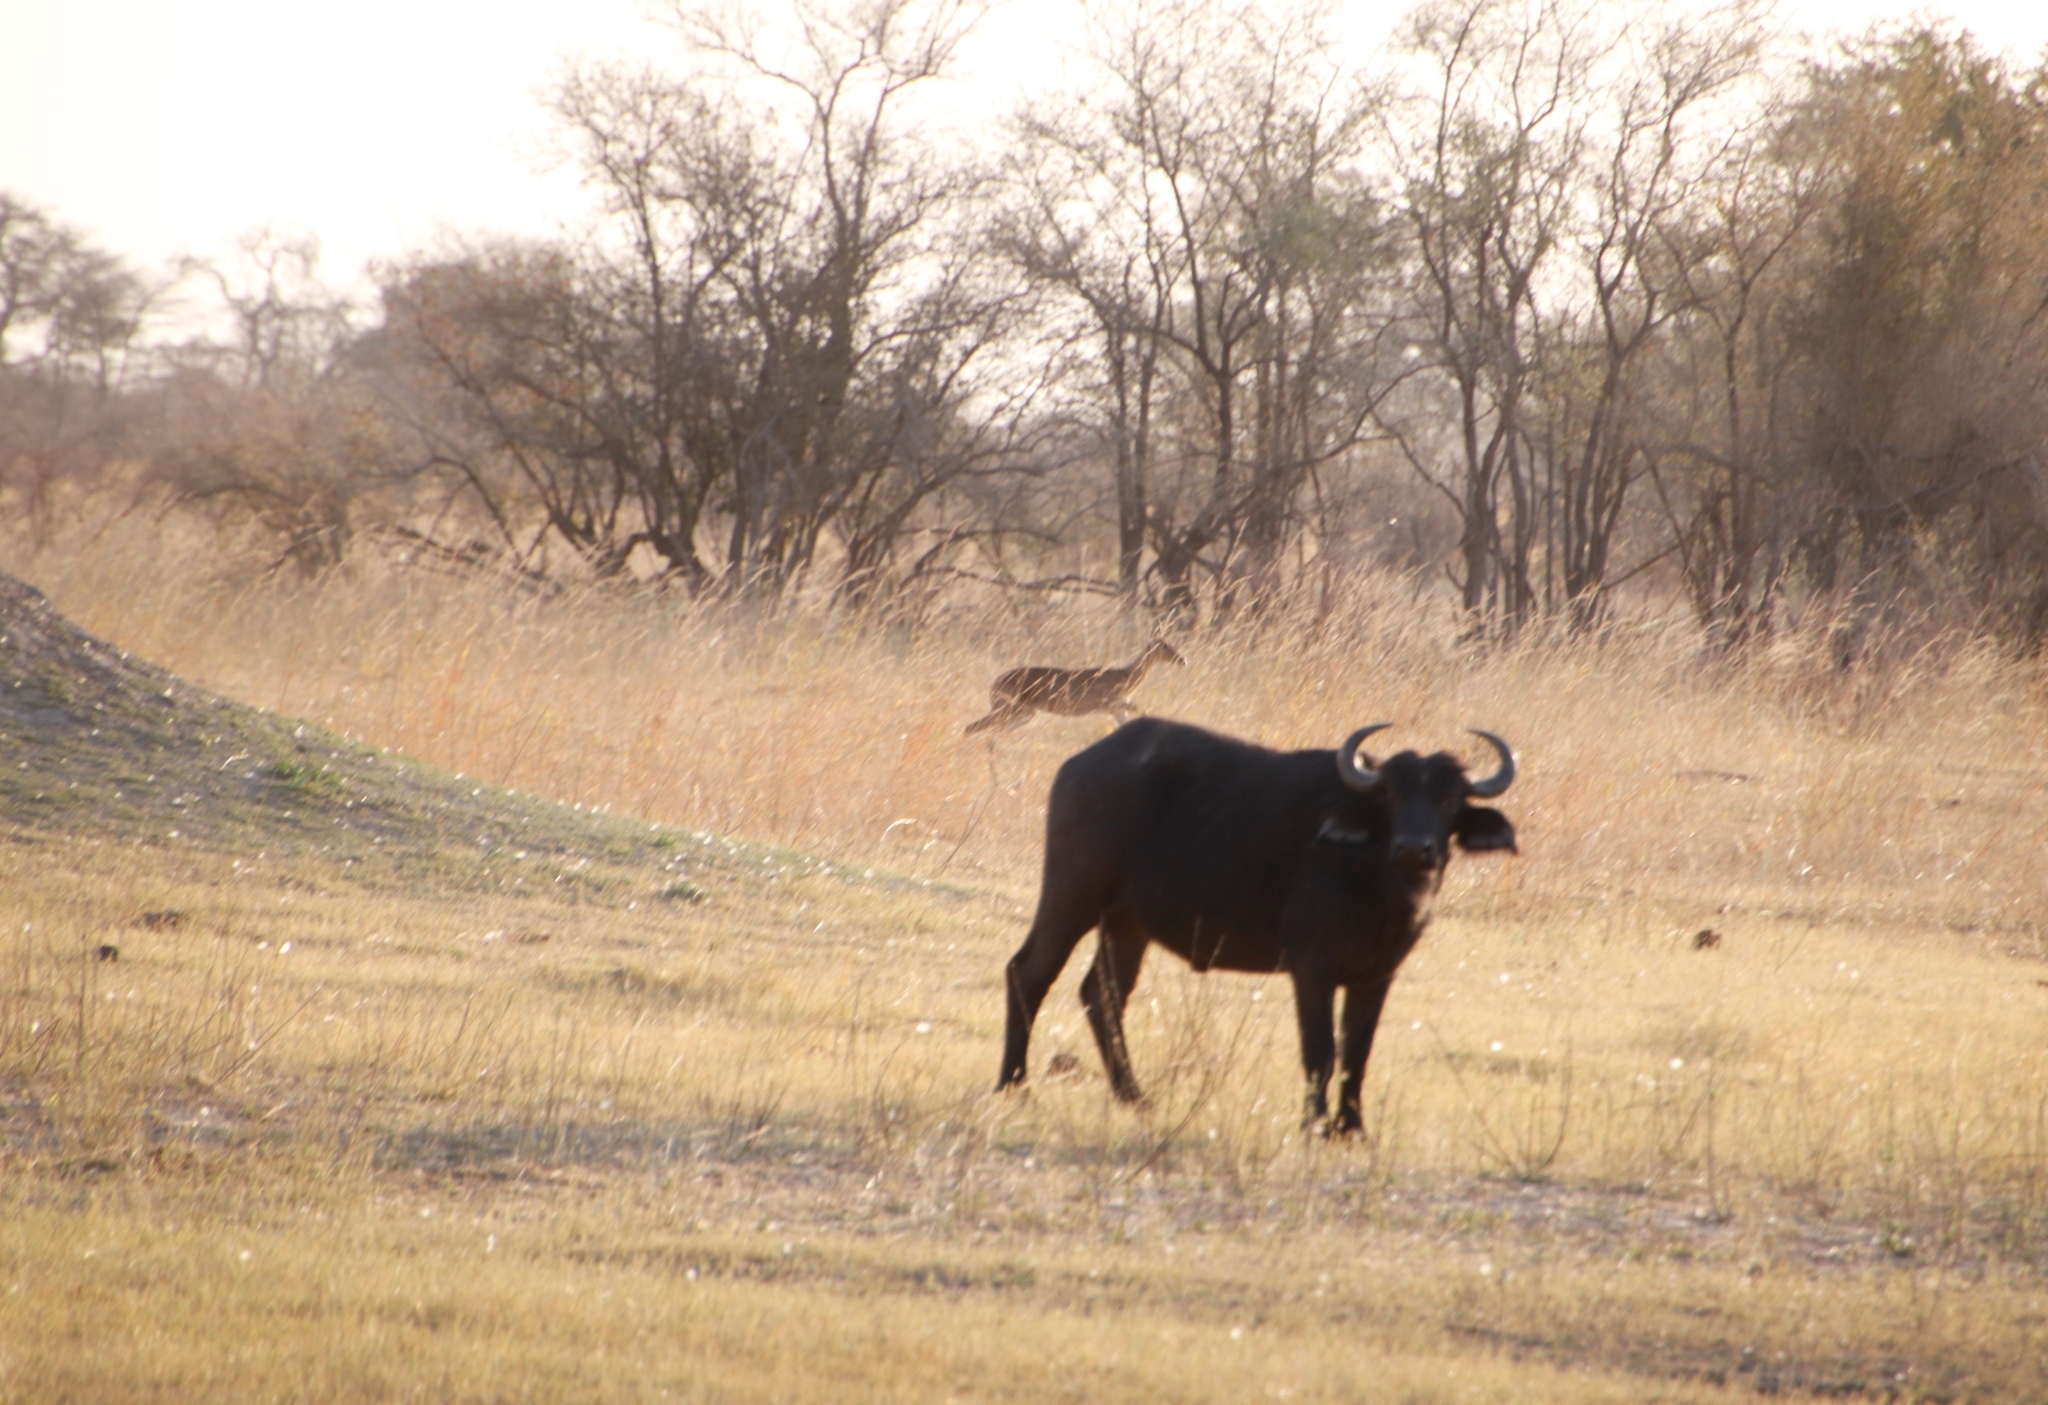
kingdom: Animalia
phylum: Chordata
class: Mammalia
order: Artiodactyla
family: Bovidae
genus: Aepyceros
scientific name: Aepyceros melampus
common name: Impala
